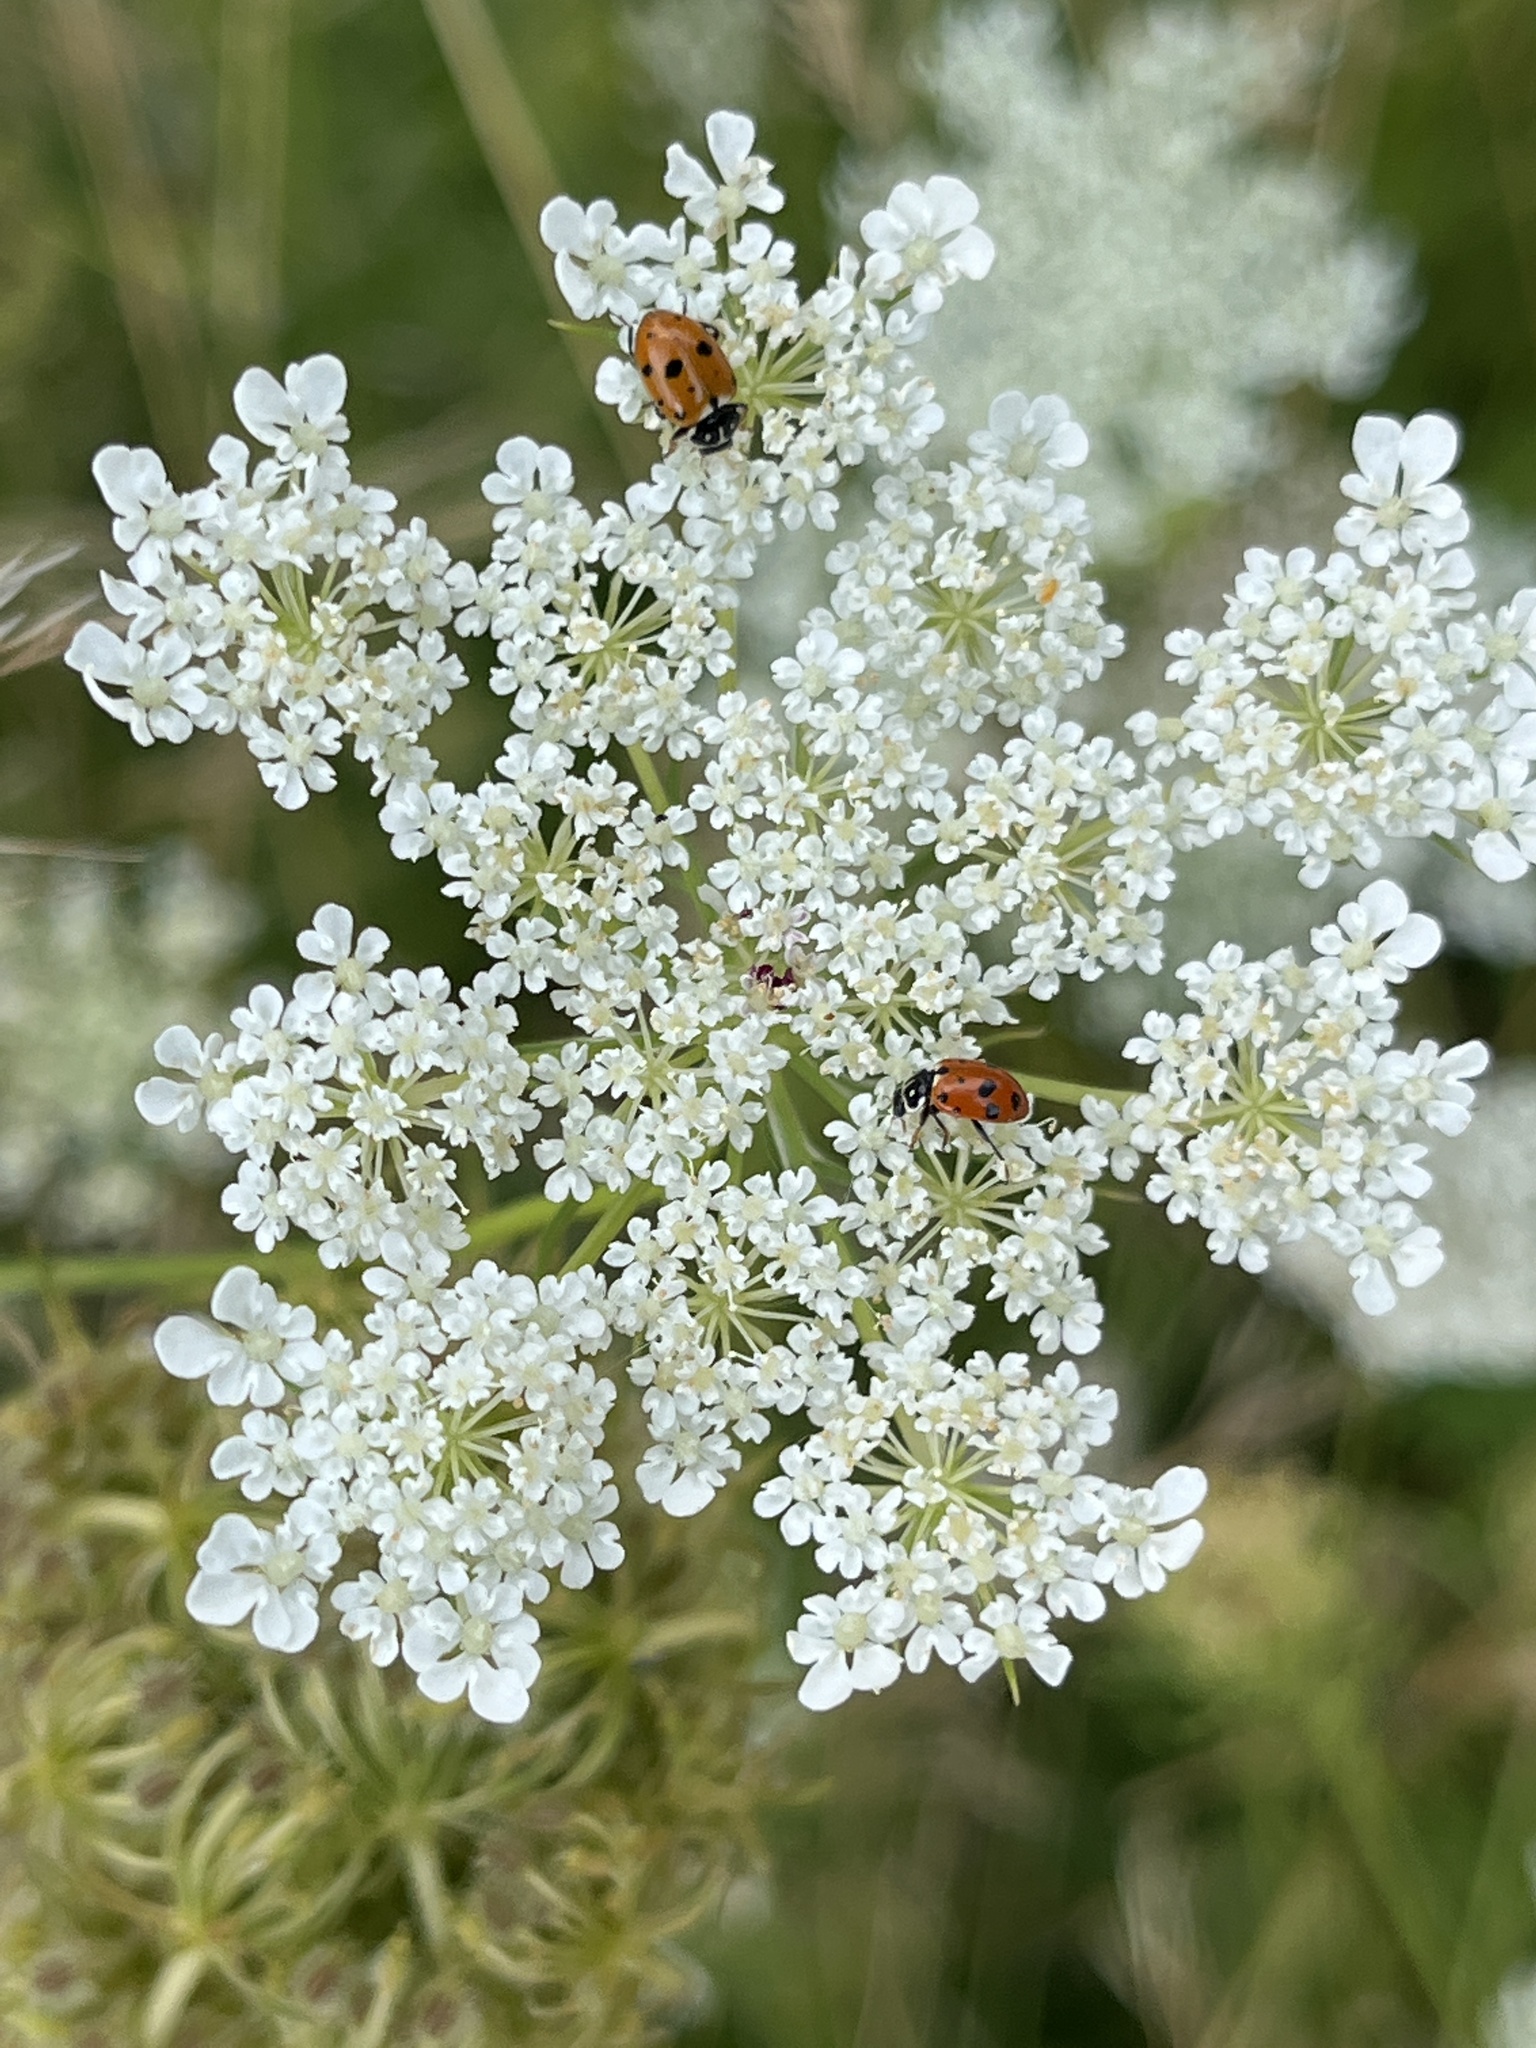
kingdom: Animalia
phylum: Arthropoda
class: Insecta
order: Coleoptera
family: Coccinellidae
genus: Hippodamia
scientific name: Hippodamia variegata
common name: Ladybird beetle
